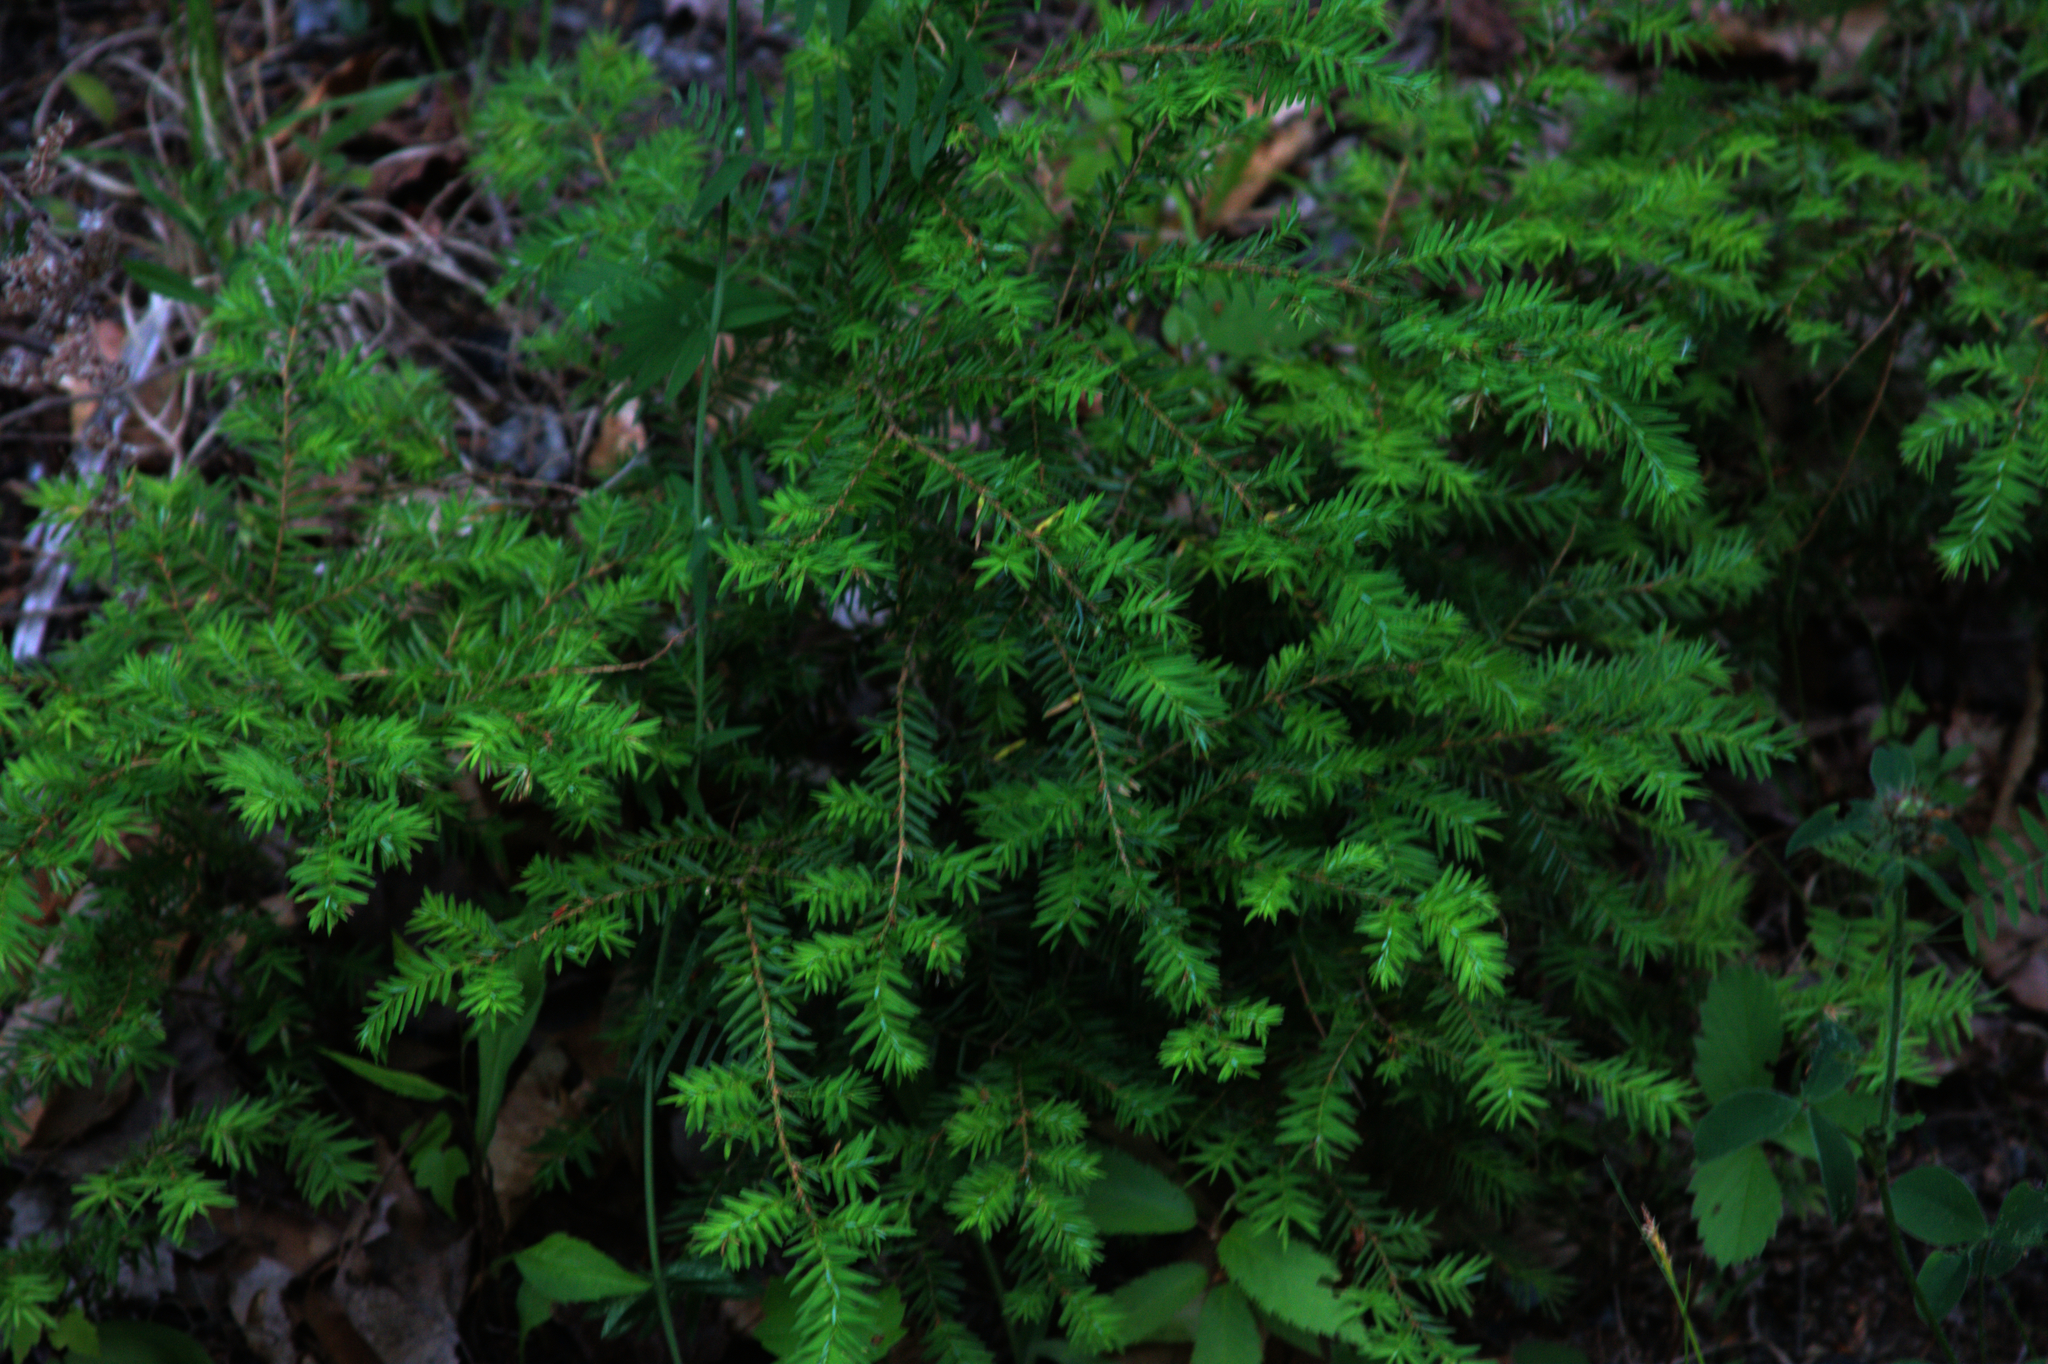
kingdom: Plantae
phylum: Tracheophyta
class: Pinopsida
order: Pinales
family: Pinaceae
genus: Tsuga
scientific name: Tsuga canadensis
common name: Eastern hemlock
